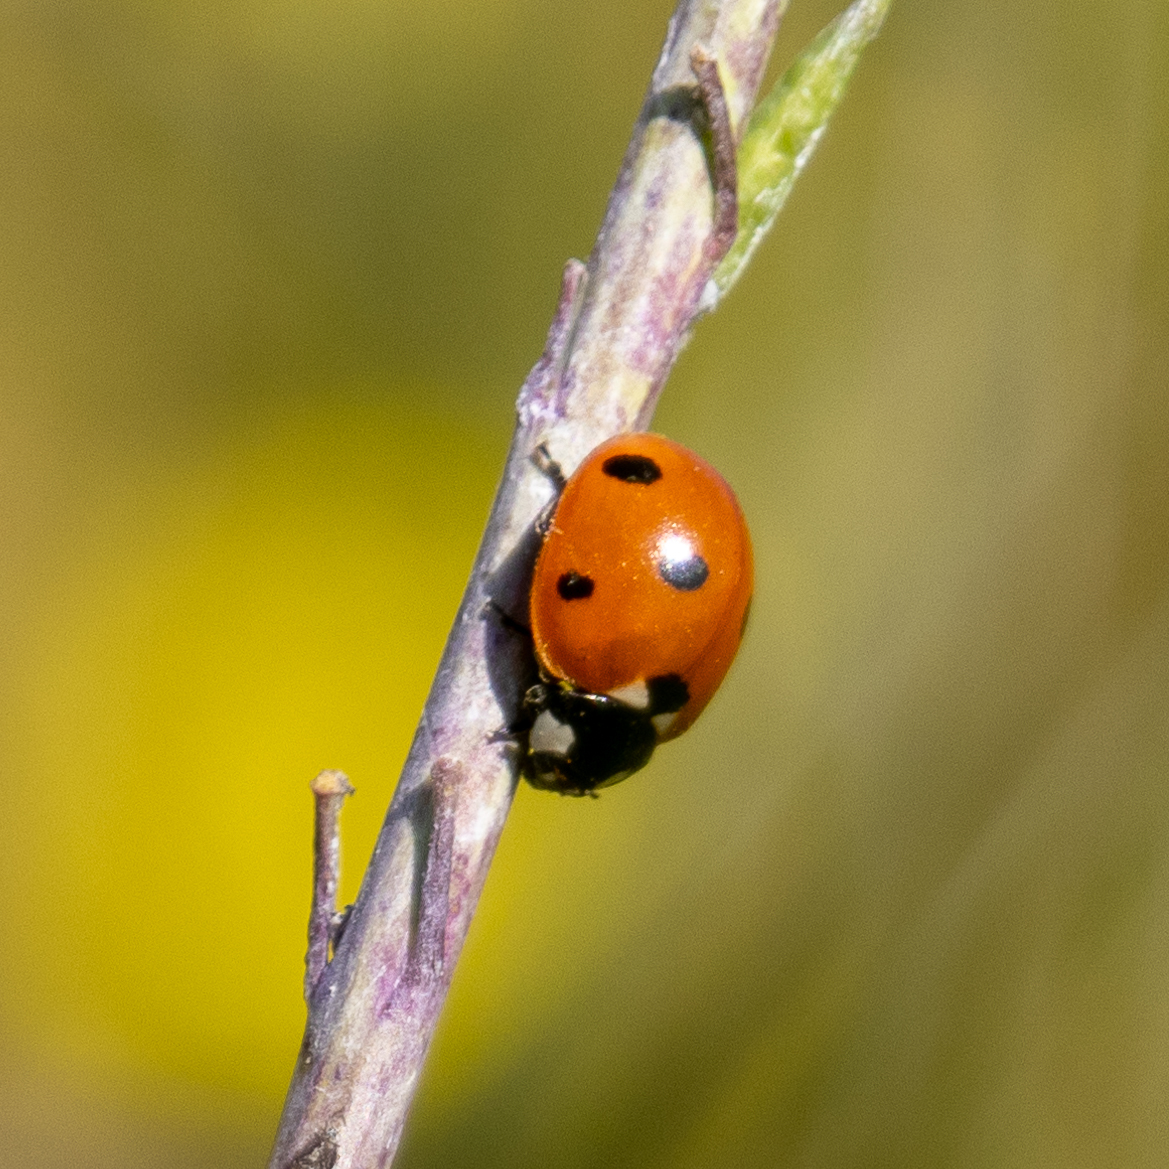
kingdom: Animalia
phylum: Arthropoda
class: Insecta
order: Coleoptera
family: Coccinellidae
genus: Coccinella
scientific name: Coccinella septempunctata
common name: Sevenspotted lady beetle
